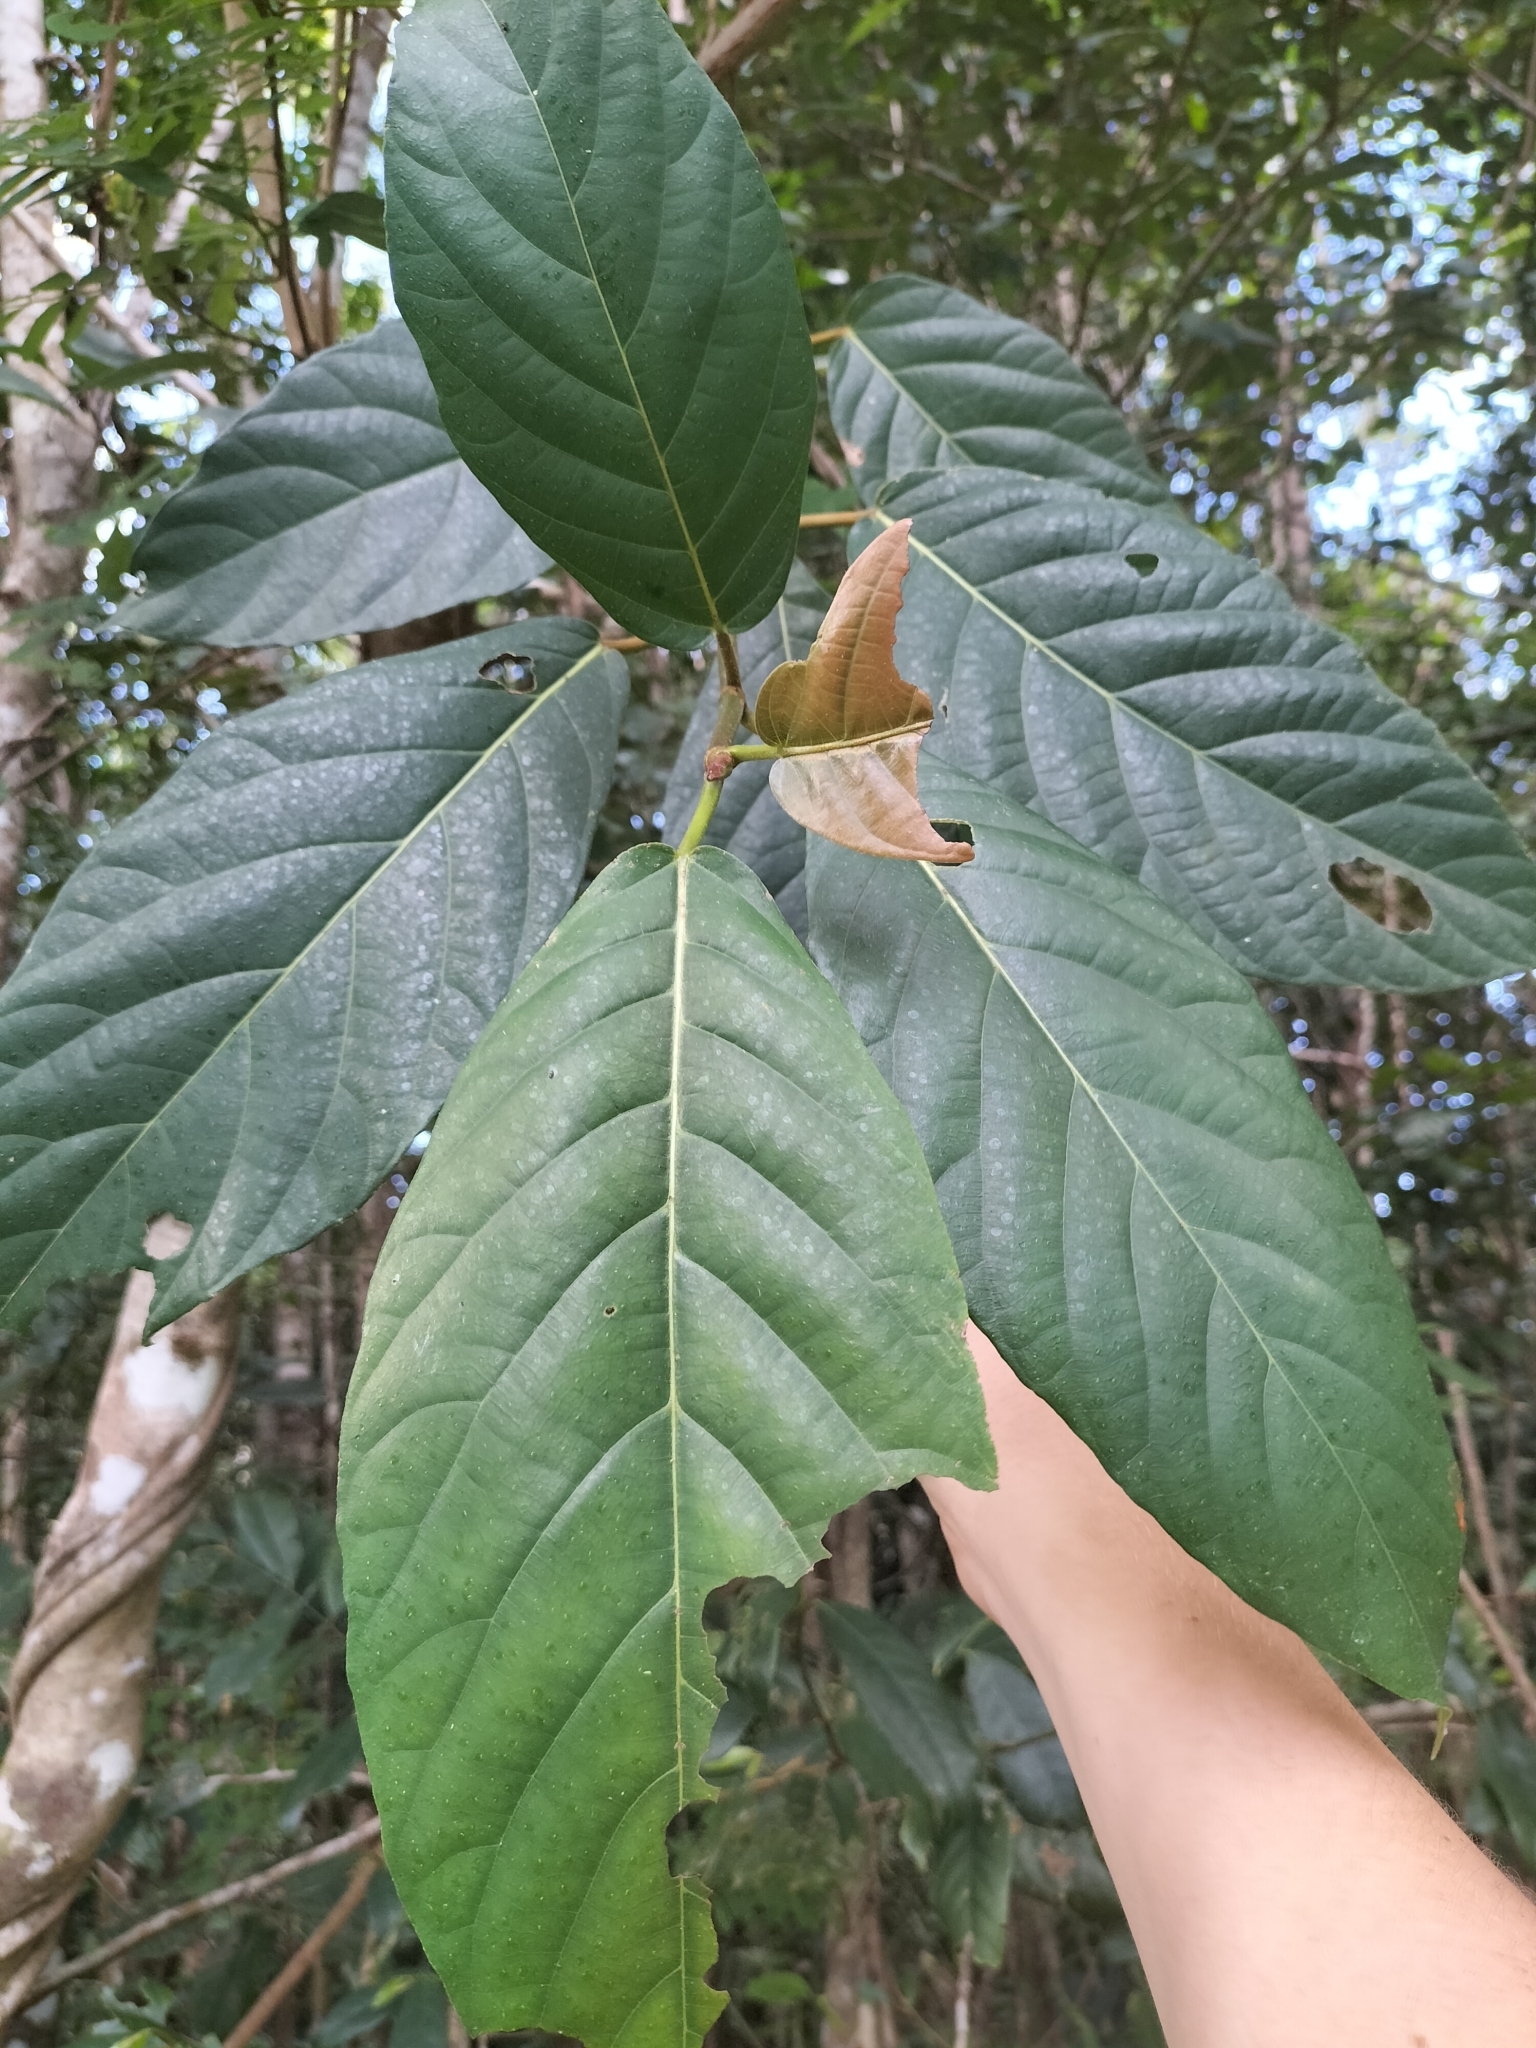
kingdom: Plantae
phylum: Tracheophyta
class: Magnoliopsida
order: Rosales
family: Moraceae
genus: Ficus
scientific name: Ficus congesta
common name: Cluster fig
